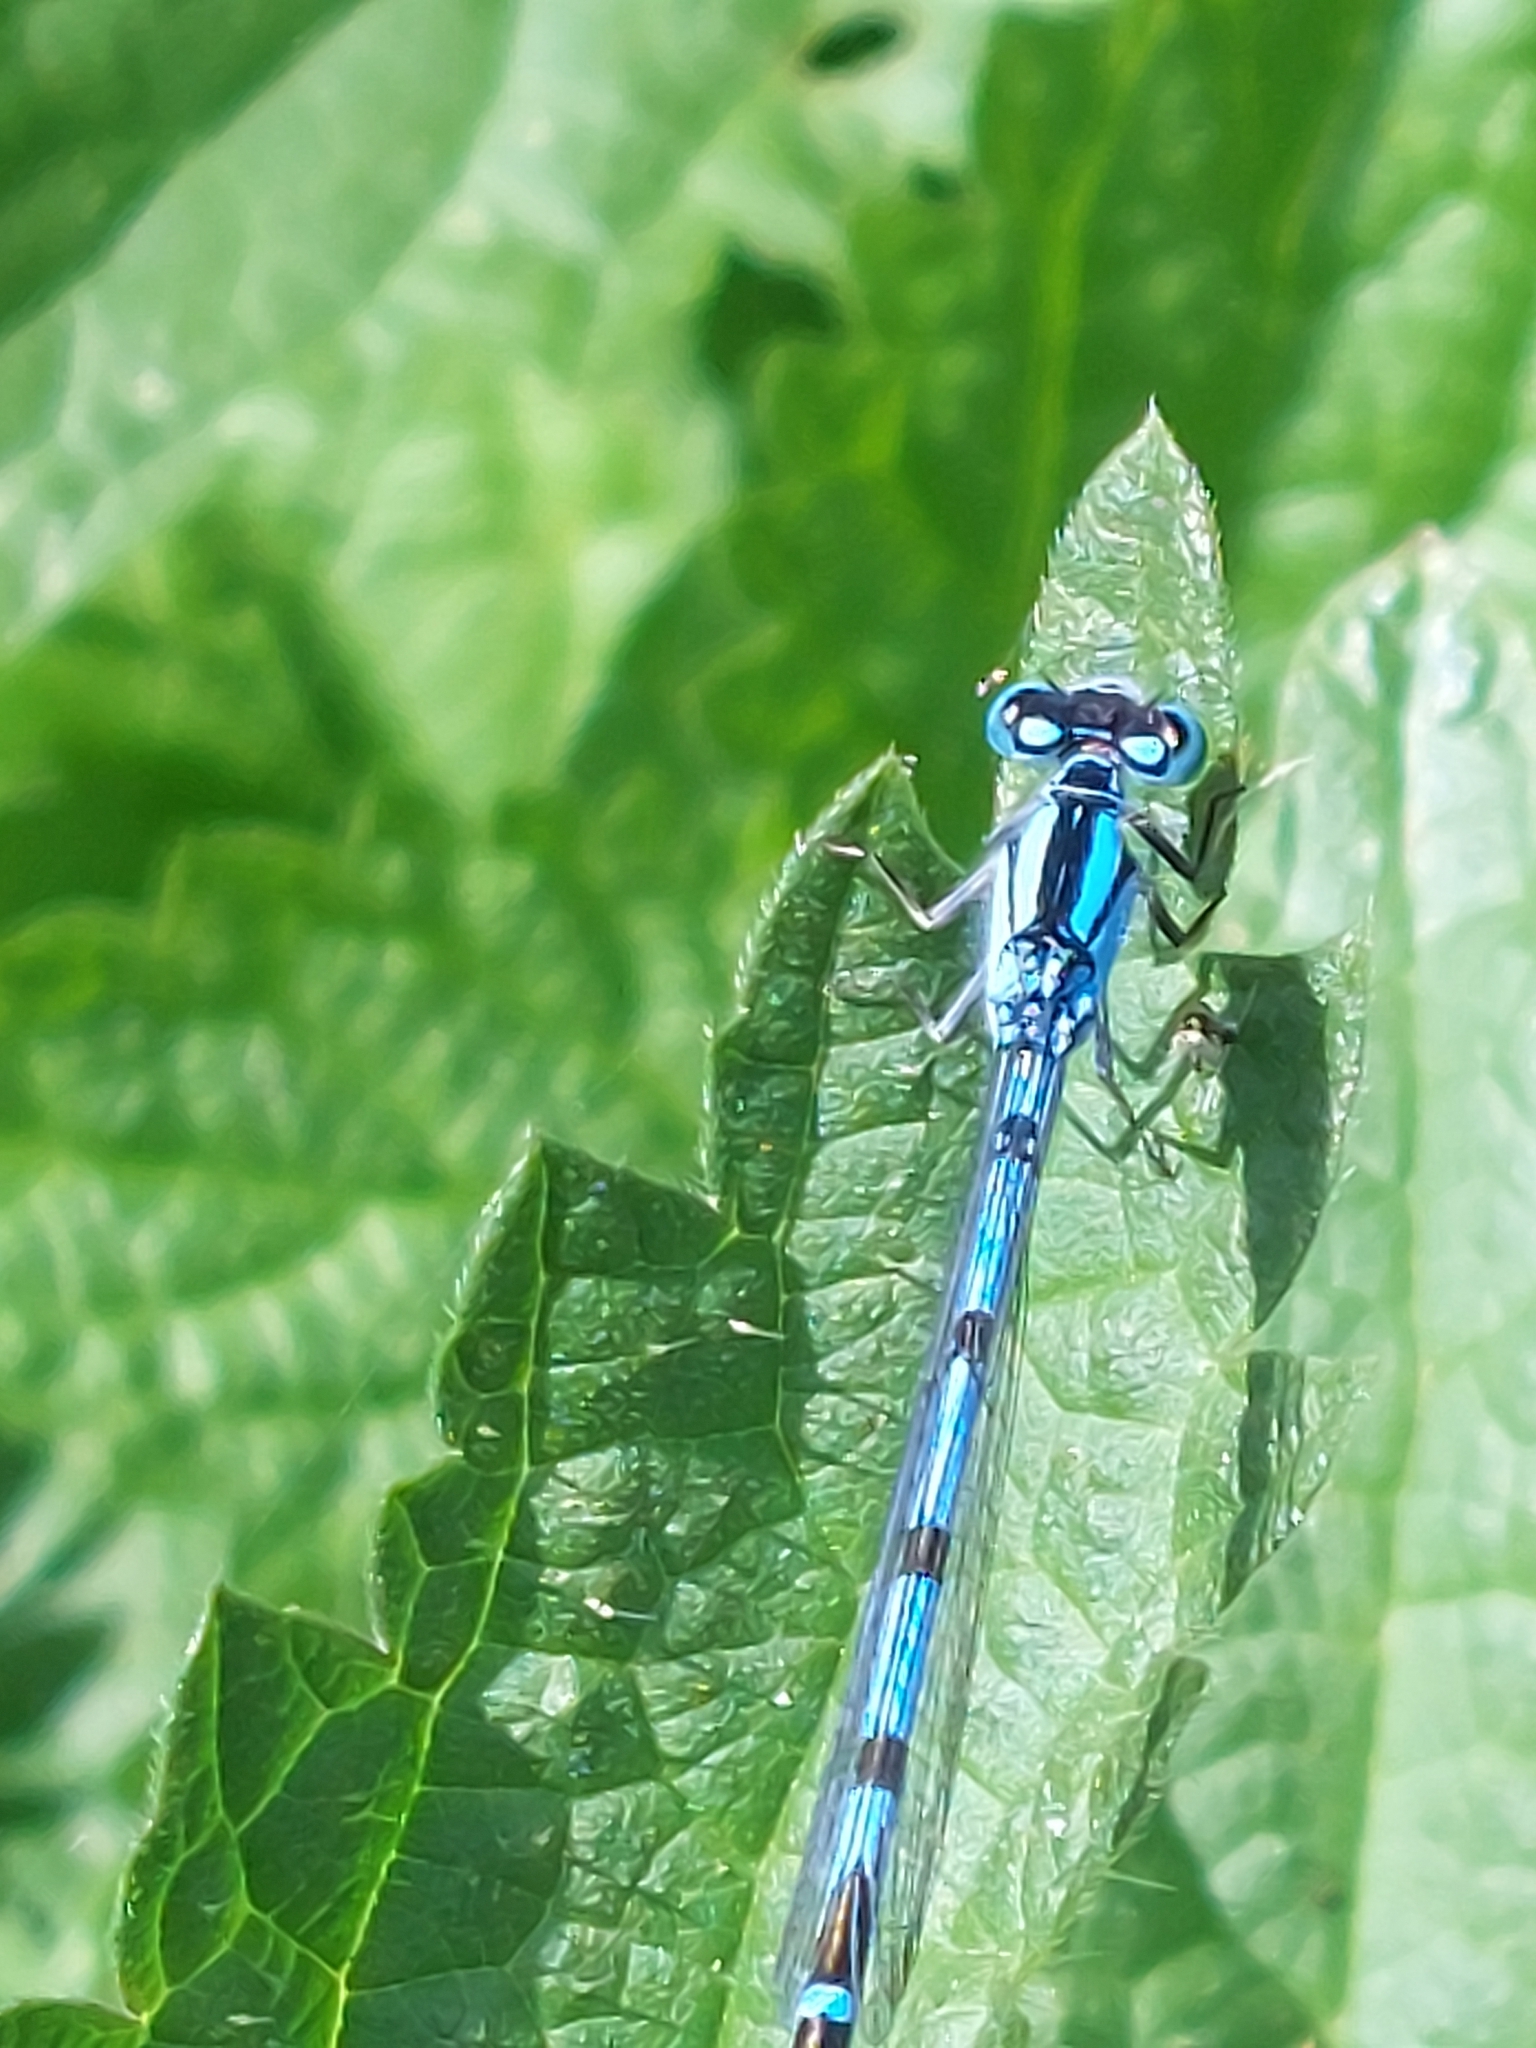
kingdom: Animalia
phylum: Arthropoda
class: Insecta
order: Odonata
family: Coenagrionidae
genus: Enallagma
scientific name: Enallagma cyathigerum
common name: Common blue damselfly
